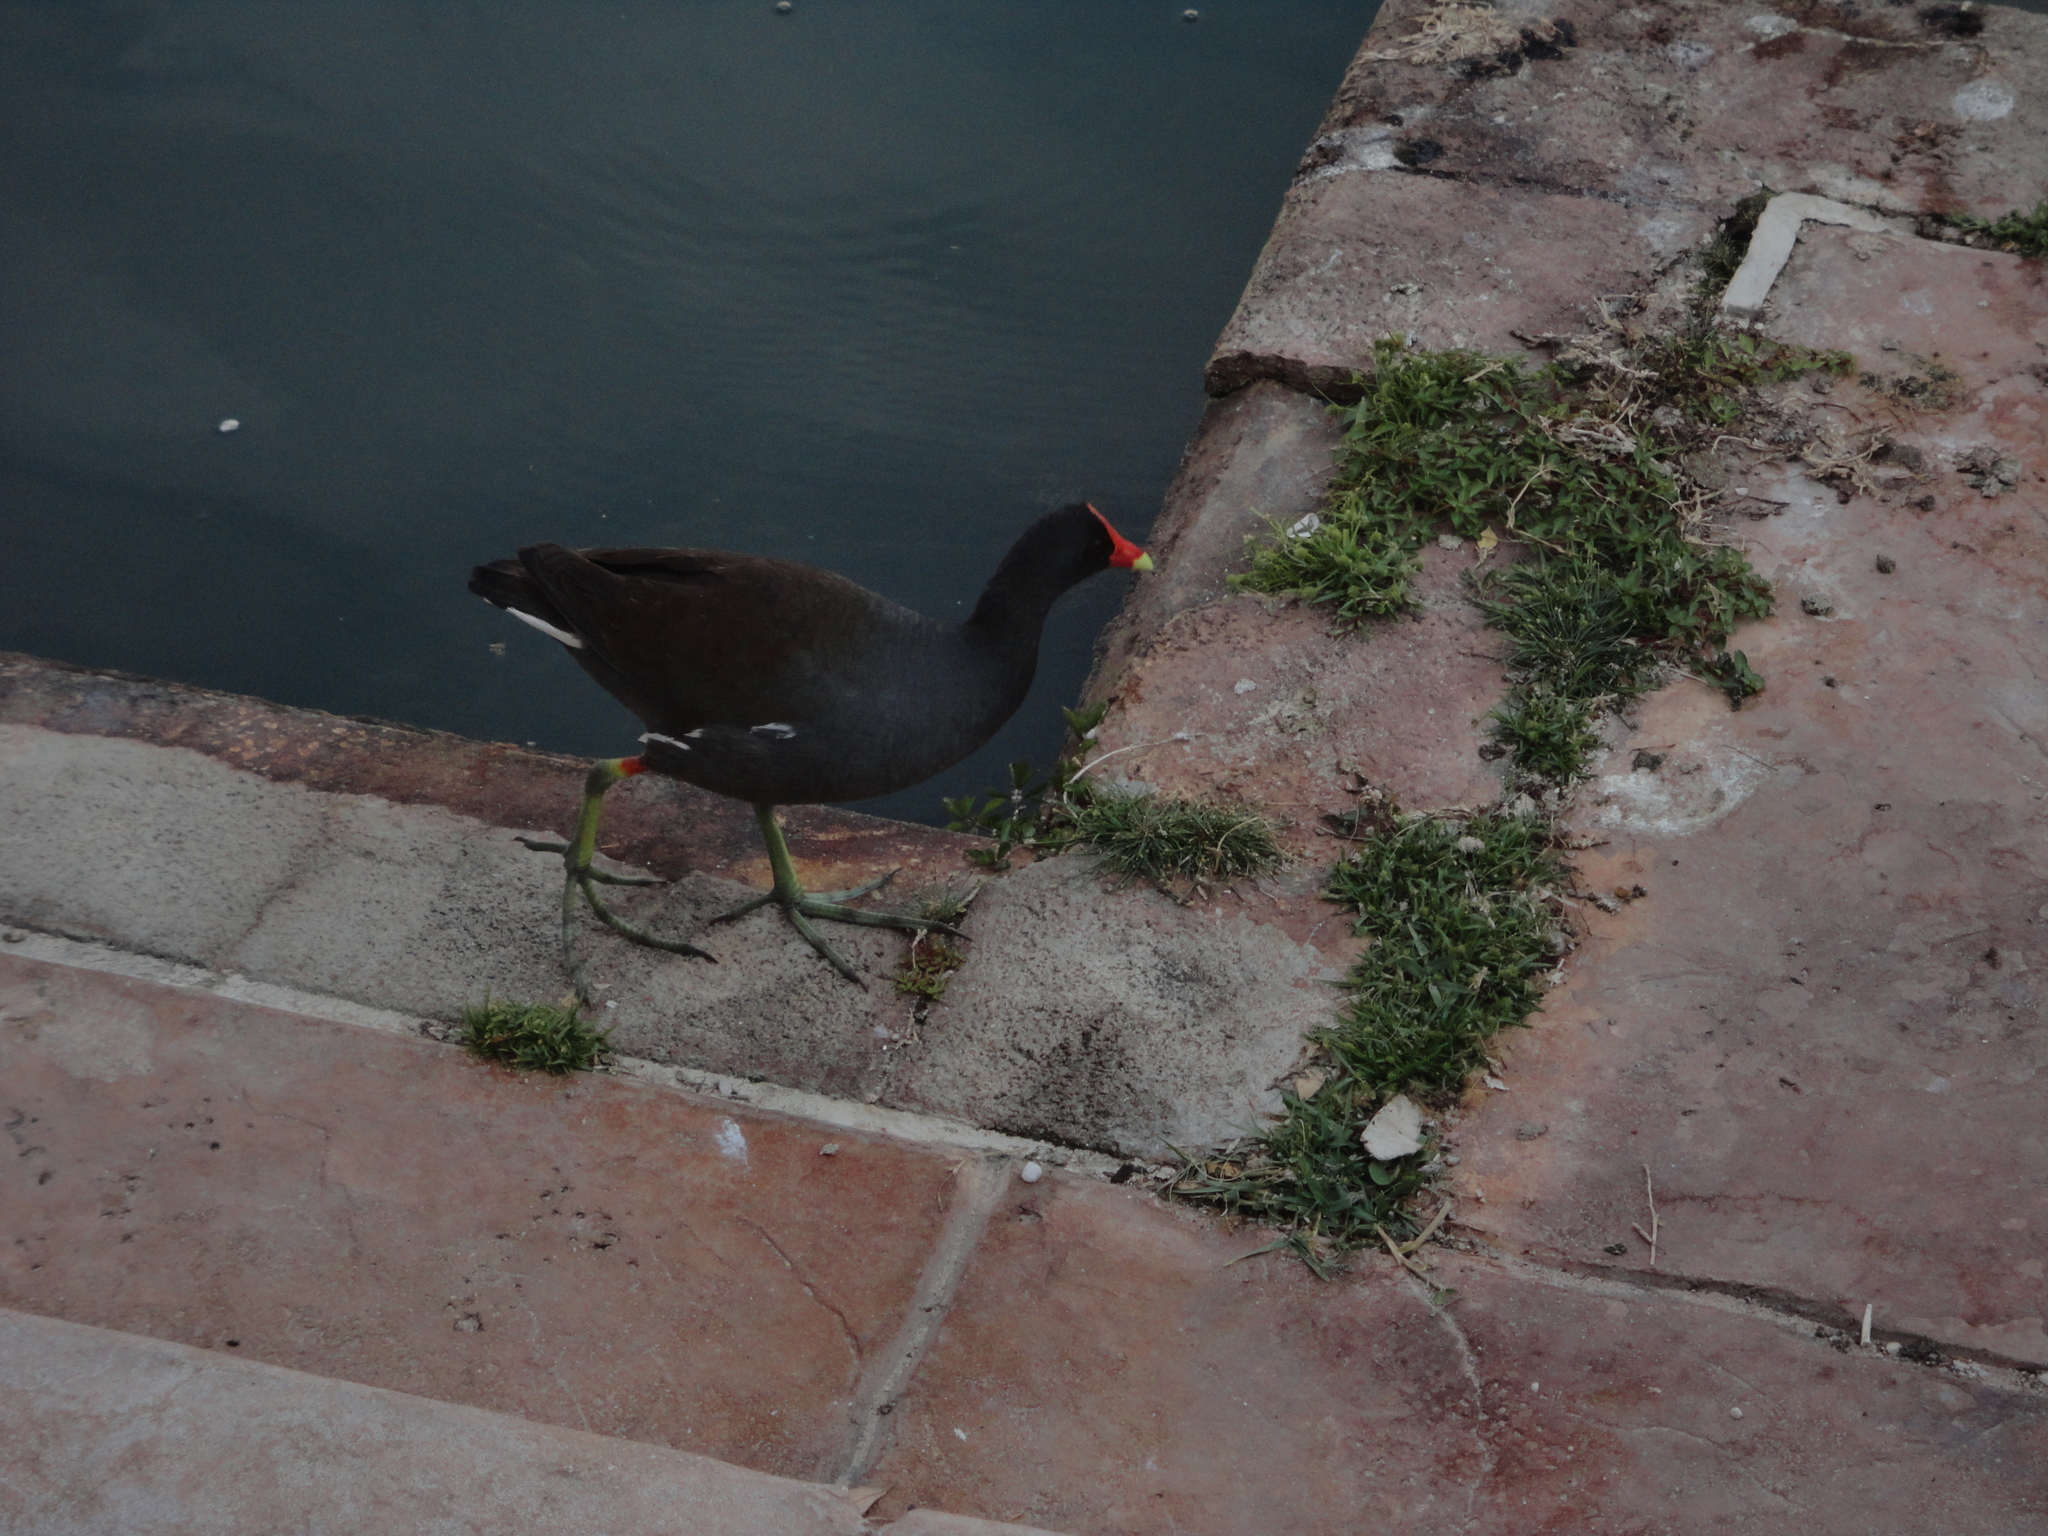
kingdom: Animalia
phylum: Chordata
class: Aves
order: Gruiformes
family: Rallidae
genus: Gallinula
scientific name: Gallinula chloropus
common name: Common moorhen
